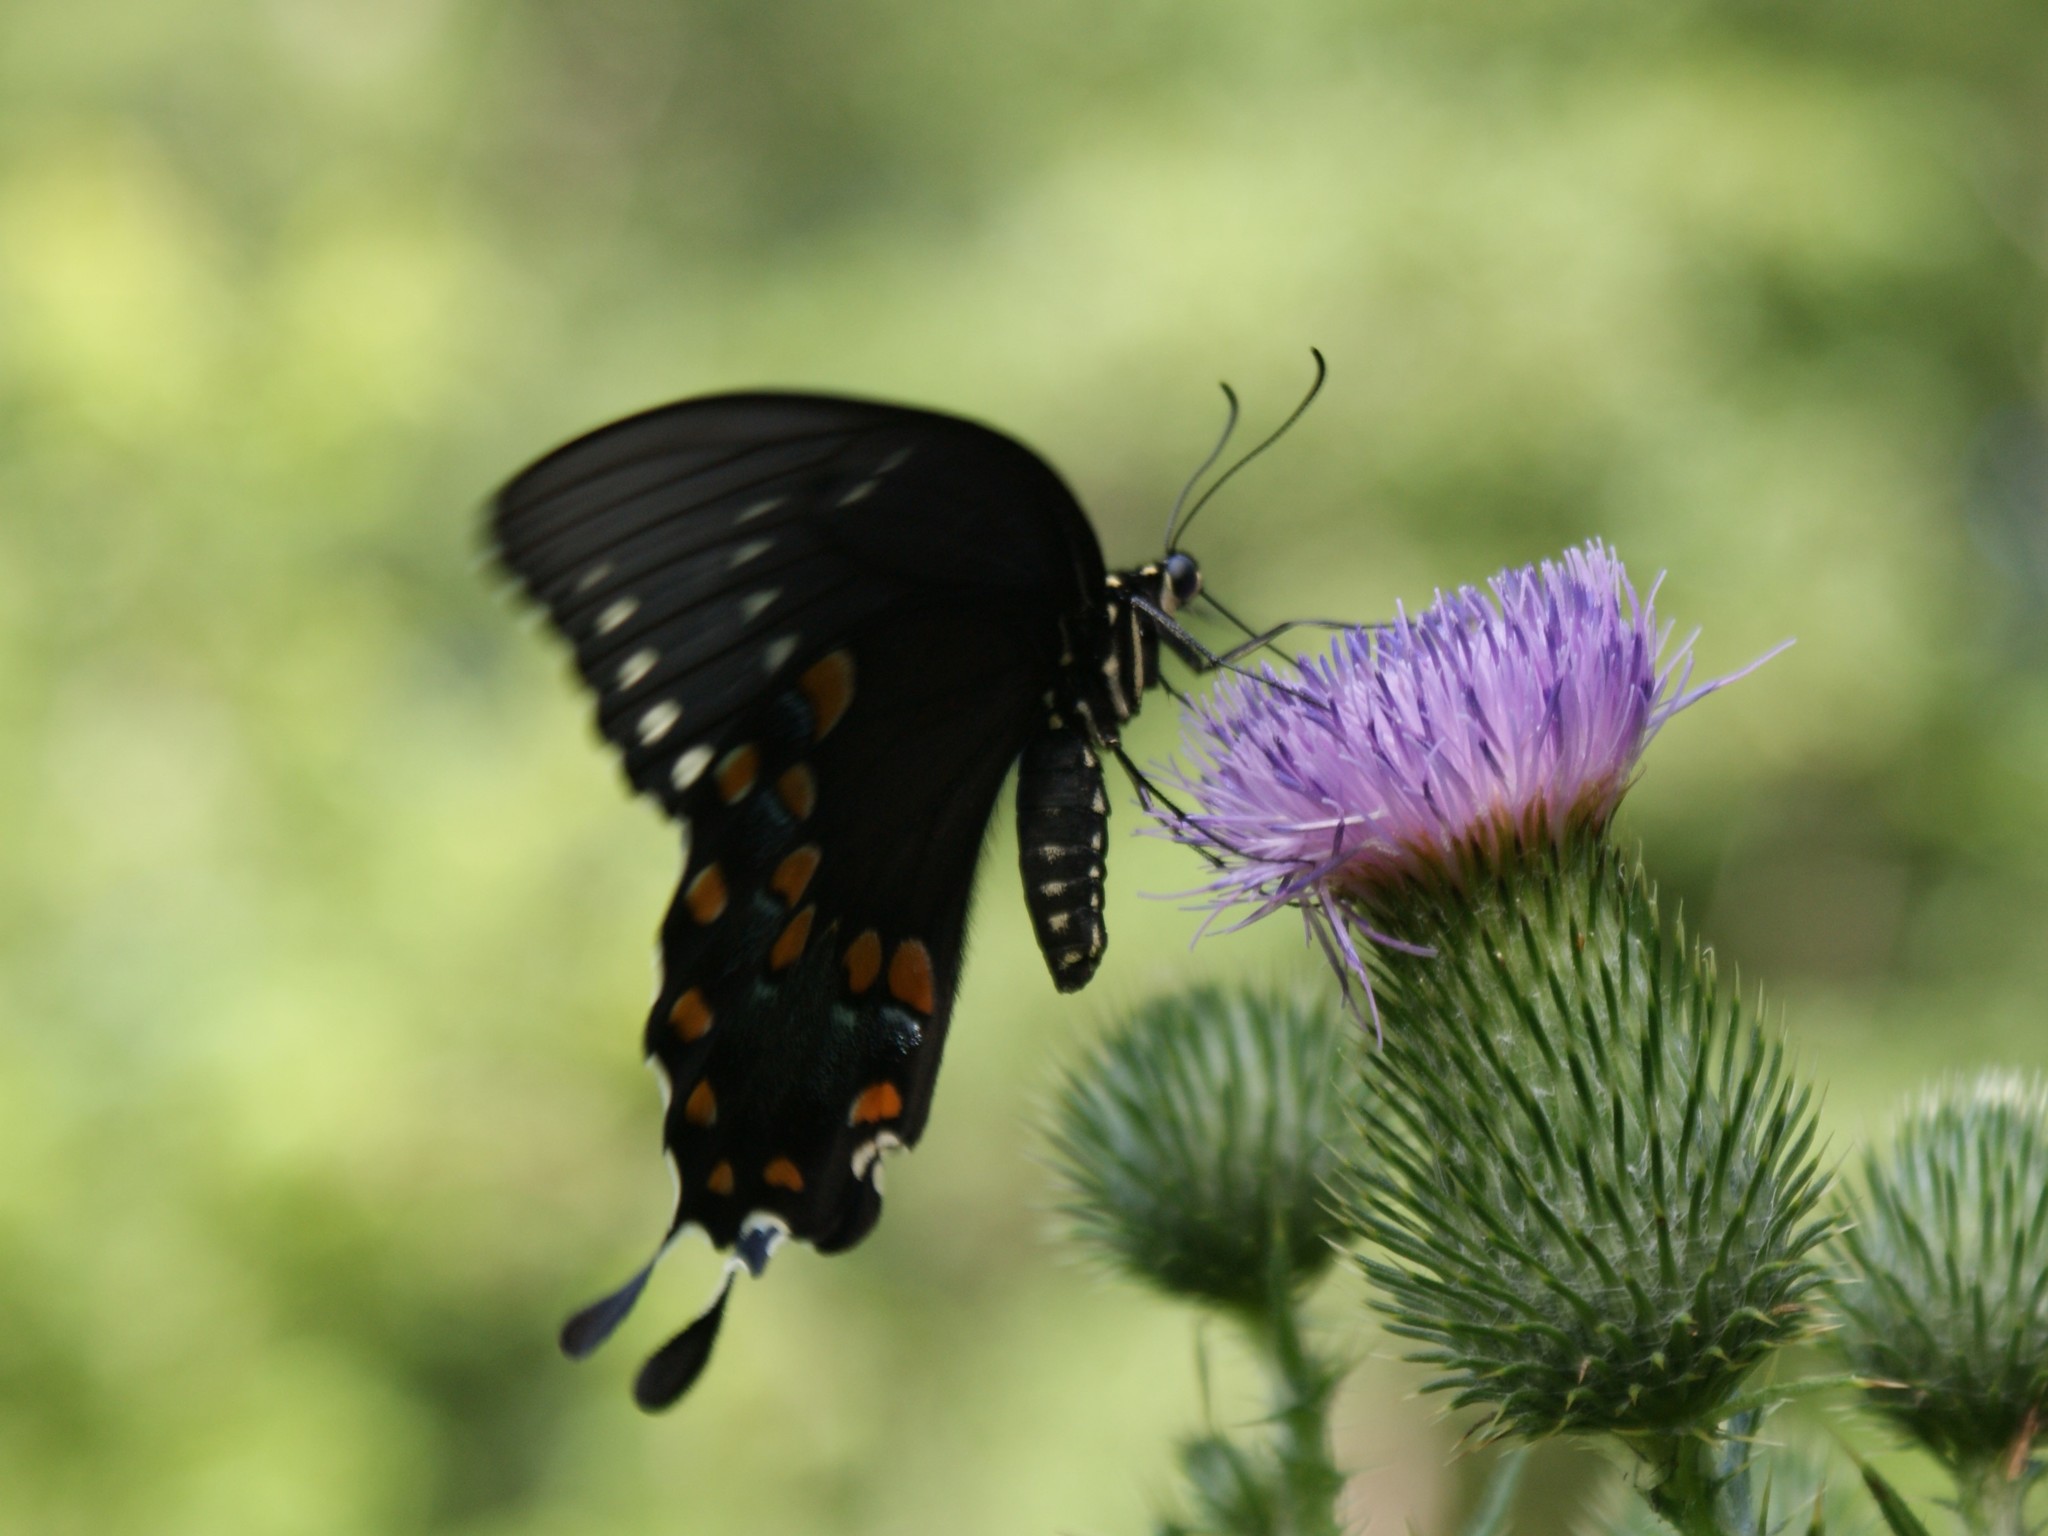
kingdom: Animalia
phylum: Arthropoda
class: Insecta
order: Lepidoptera
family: Papilionidae
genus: Papilio
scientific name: Papilio troilus
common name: Spicebush swallowtail
